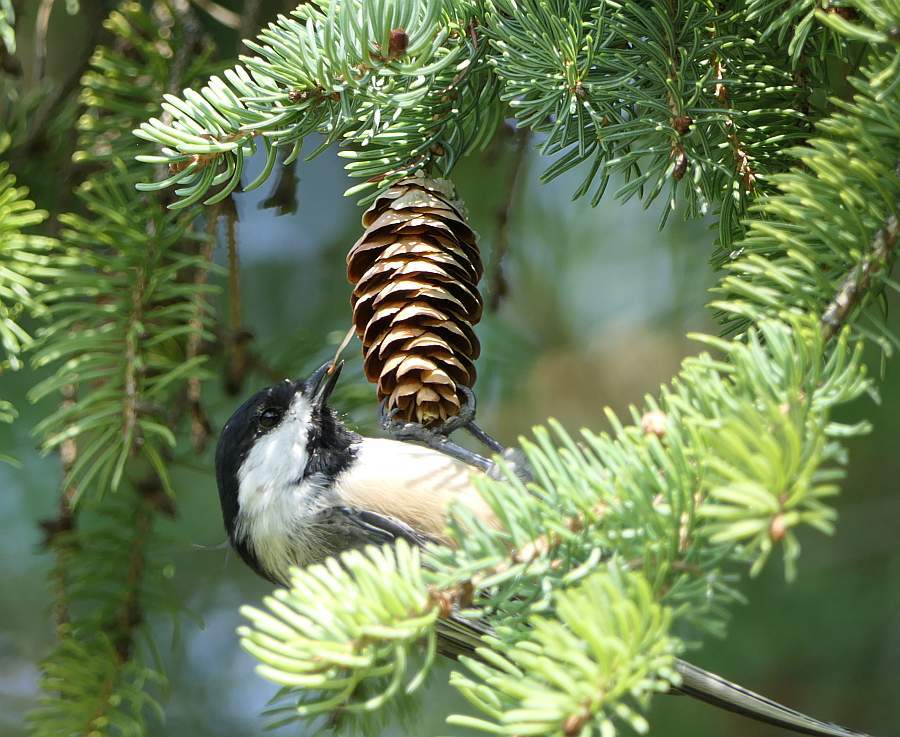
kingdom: Animalia
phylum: Chordata
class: Aves
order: Passeriformes
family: Paridae
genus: Poecile
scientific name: Poecile atricapillus
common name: Black-capped chickadee
